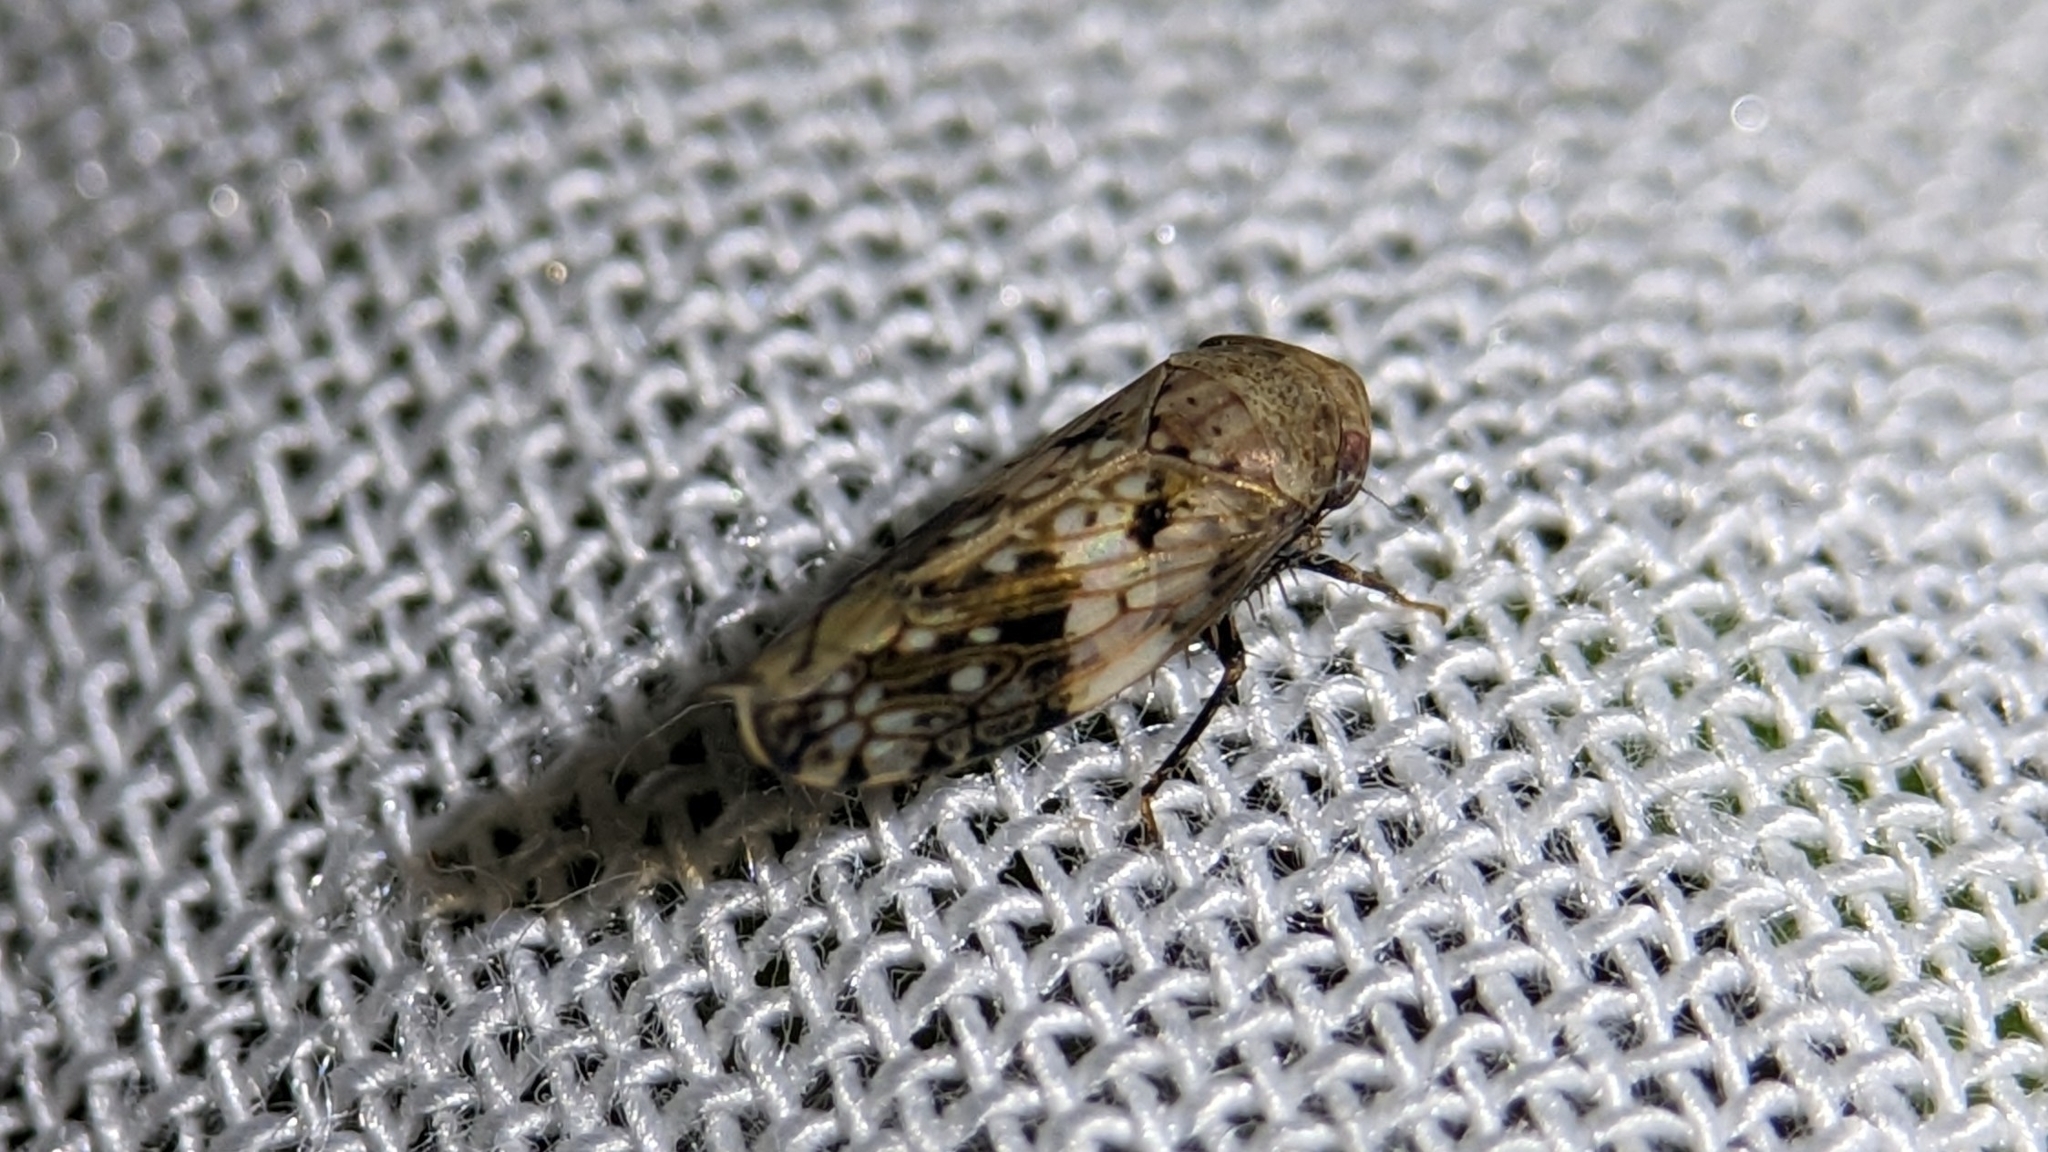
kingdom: Animalia
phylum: Arthropoda
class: Insecta
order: Hemiptera
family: Cicadellidae
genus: Menosoma
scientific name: Menosoma cinctum
